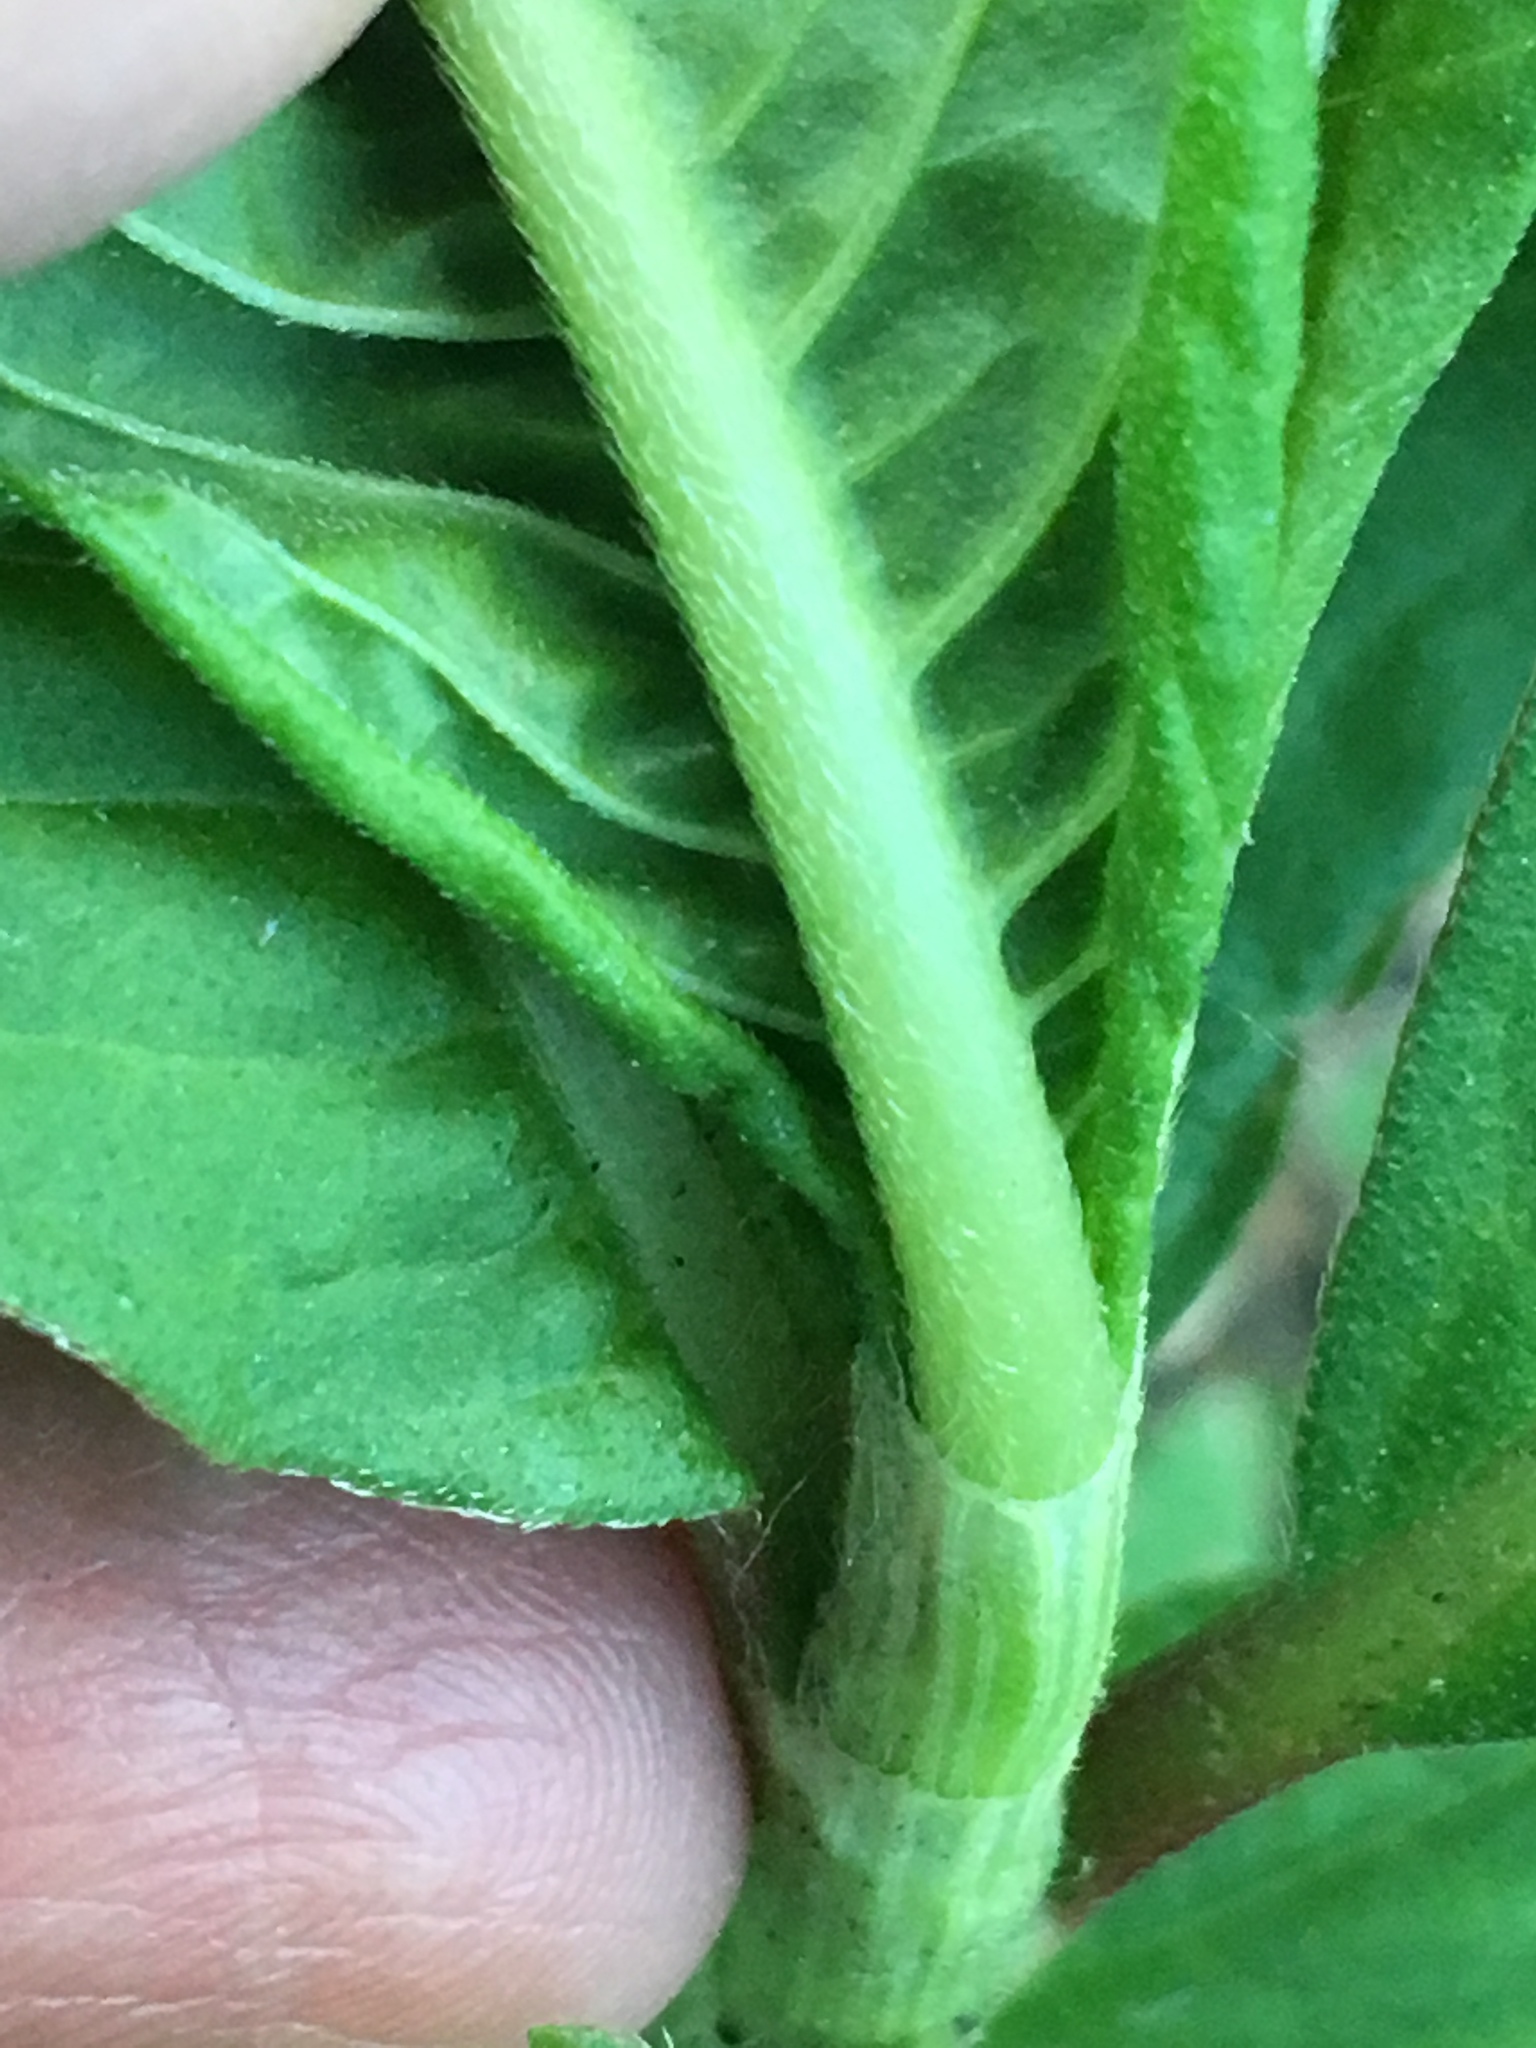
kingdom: Plantae
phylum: Tracheophyta
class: Magnoliopsida
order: Caryophyllales
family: Polygonaceae
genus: Persicaria
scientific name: Persicaria extremiorientalis
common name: Far-eastern smartweed
